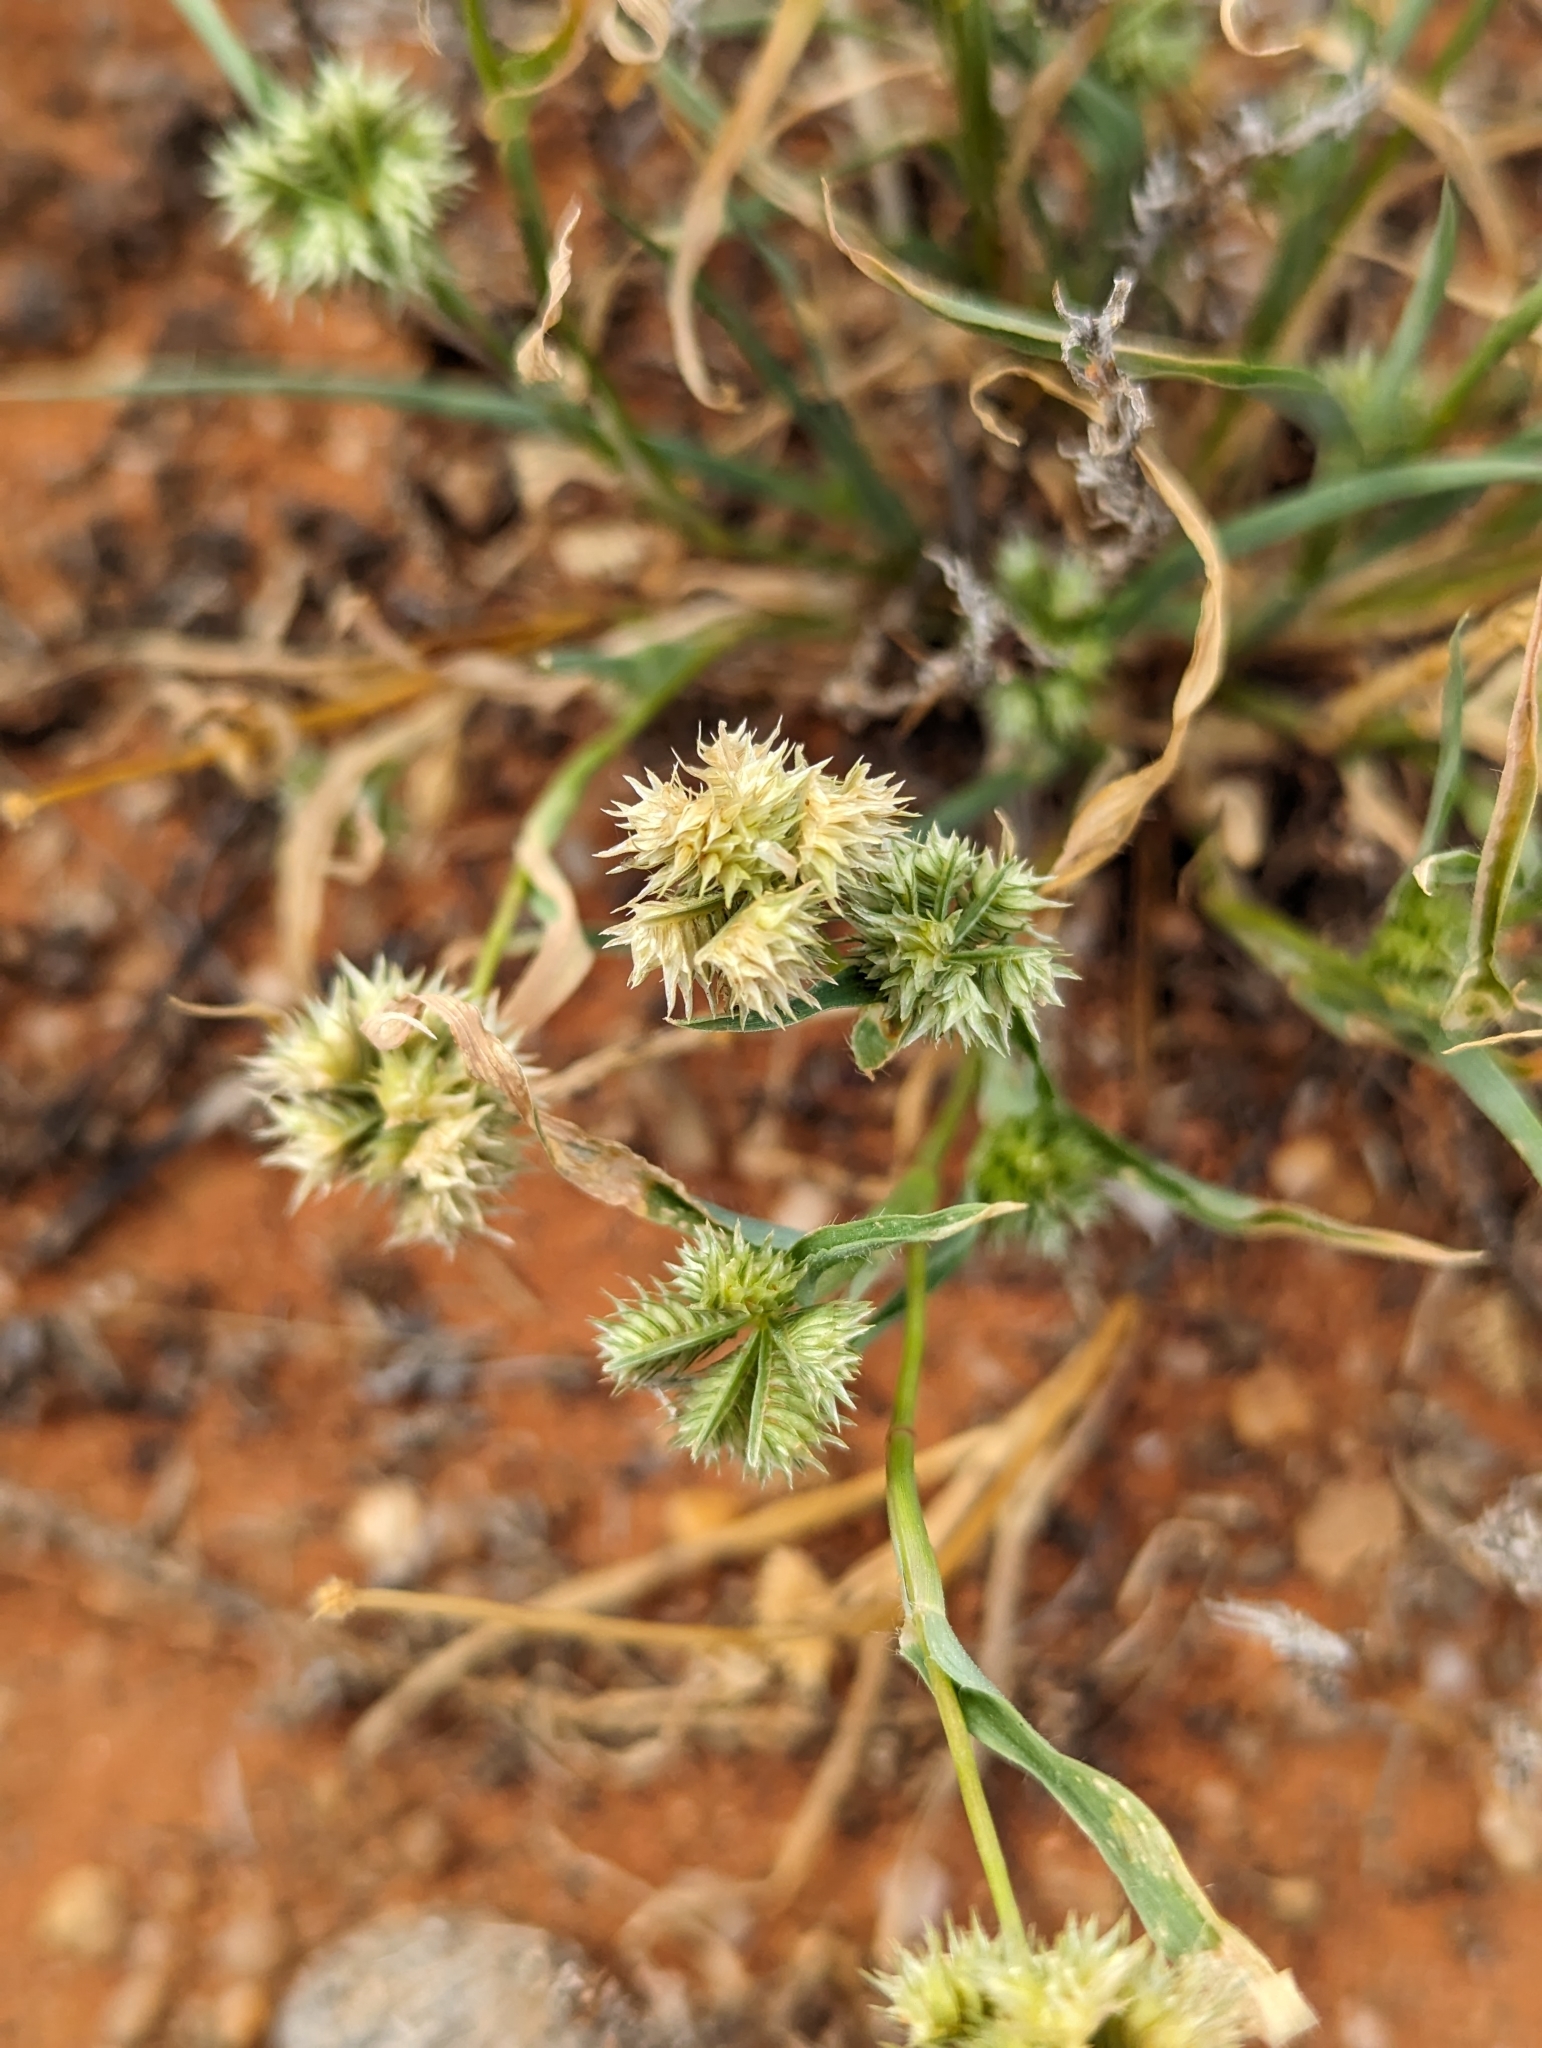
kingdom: Plantae
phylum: Tracheophyta
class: Liliopsida
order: Poales
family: Poaceae
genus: Dactyloctenium
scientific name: Dactyloctenium radulans
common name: Button-grass
